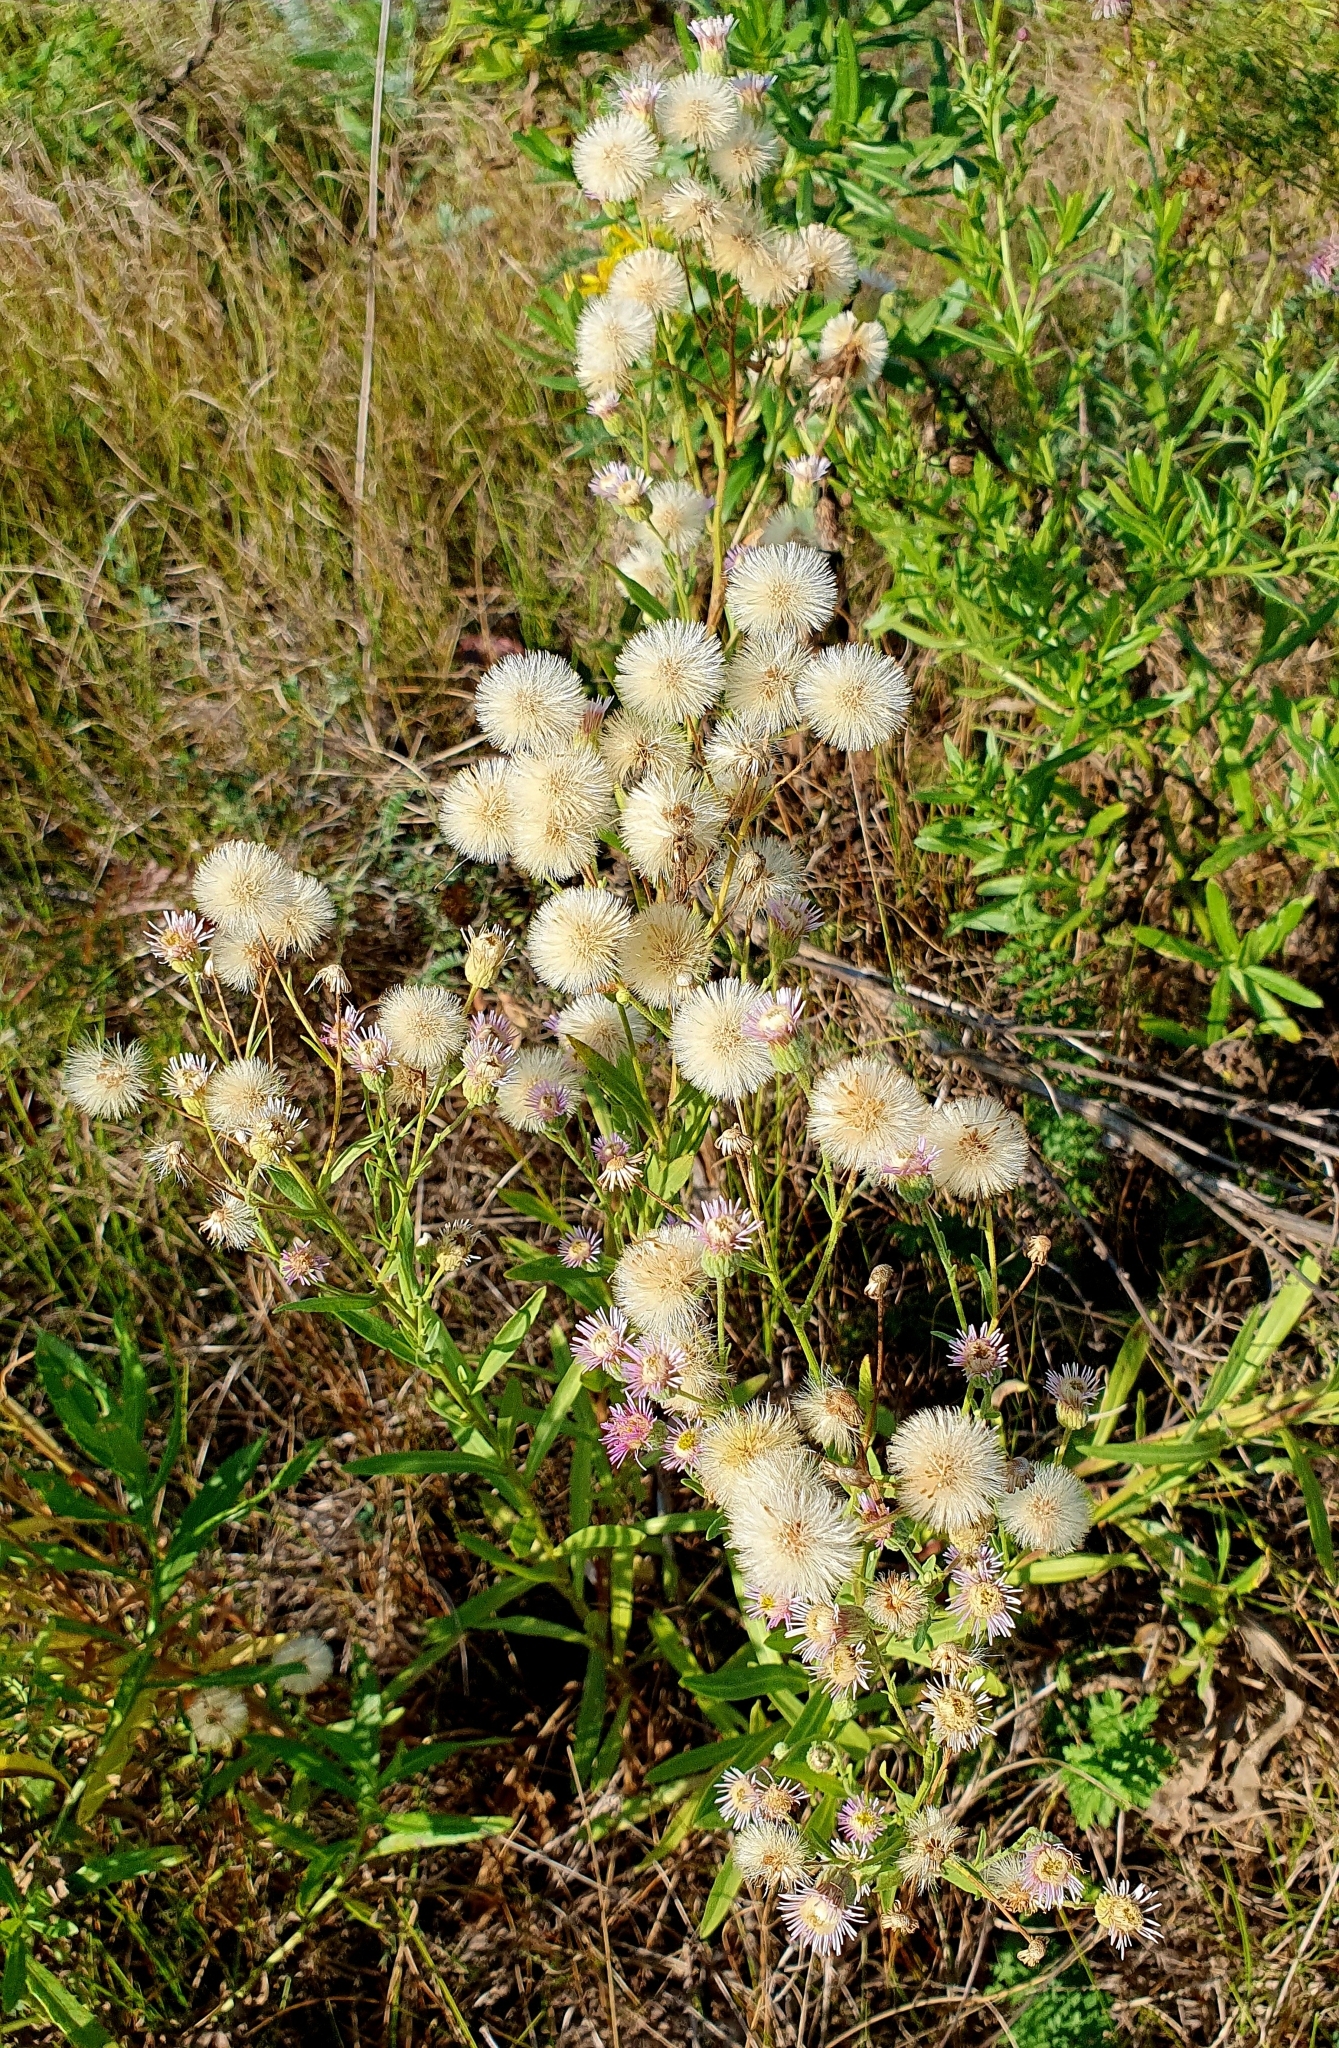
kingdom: Plantae
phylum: Tracheophyta
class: Magnoliopsida
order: Asterales
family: Asteraceae
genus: Erigeron
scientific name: Erigeron acris
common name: Blue fleabane
